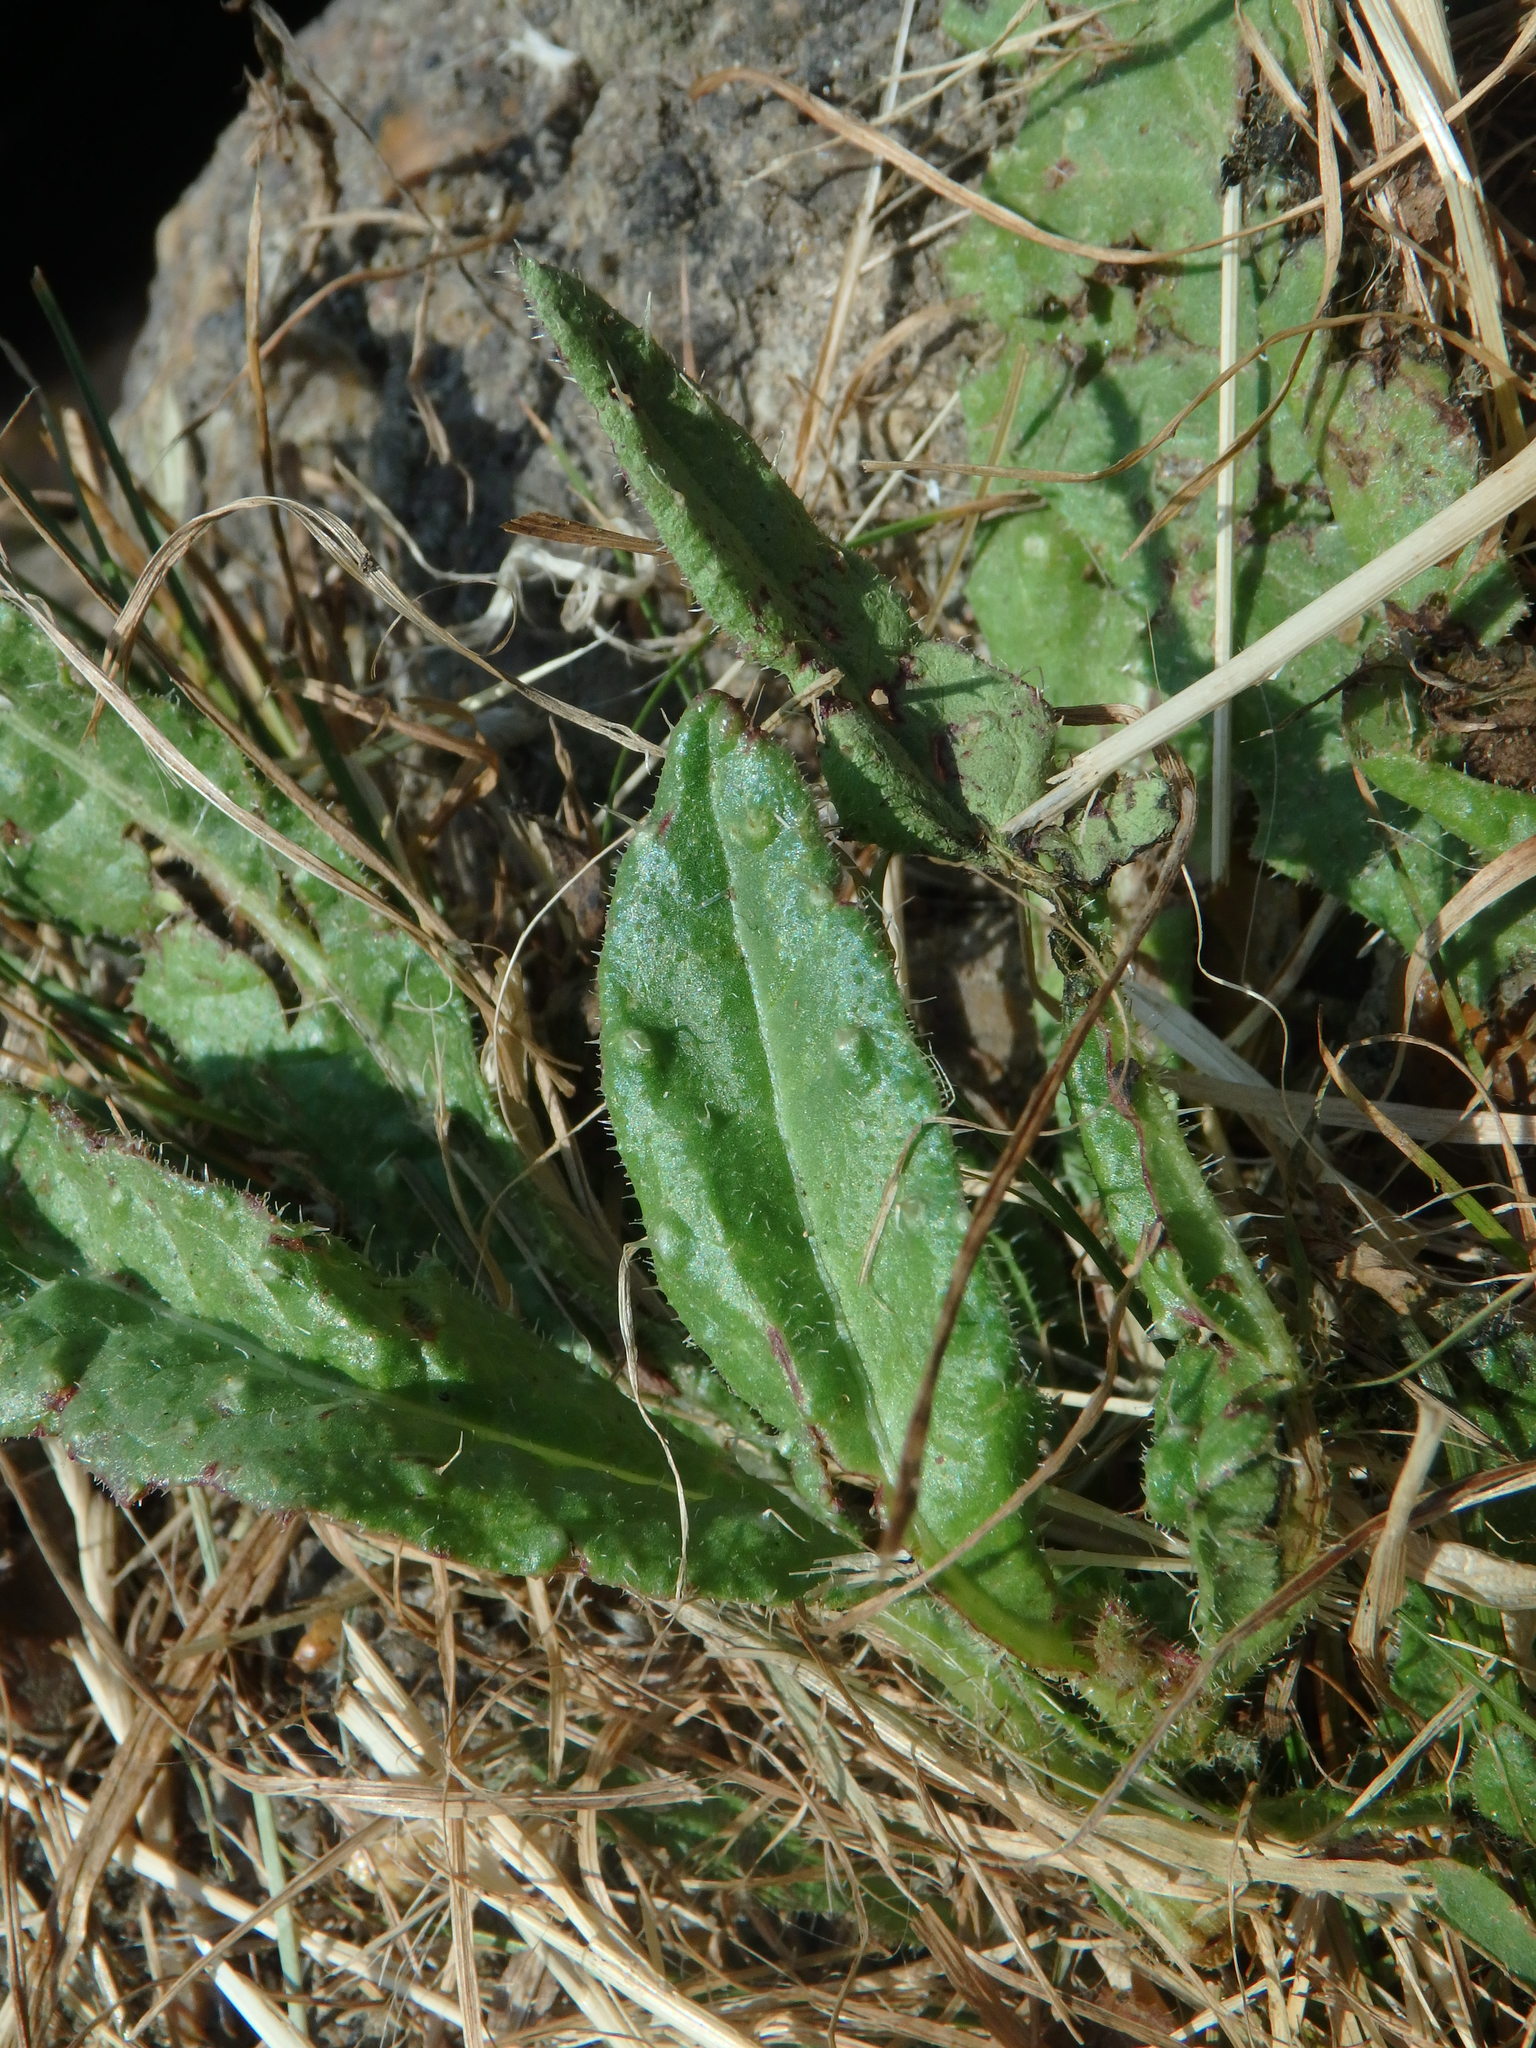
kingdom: Plantae
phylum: Tracheophyta
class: Magnoliopsida
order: Asterales
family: Asteraceae
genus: Helminthotheca
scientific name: Helminthotheca echioides
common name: Ox-tongue
